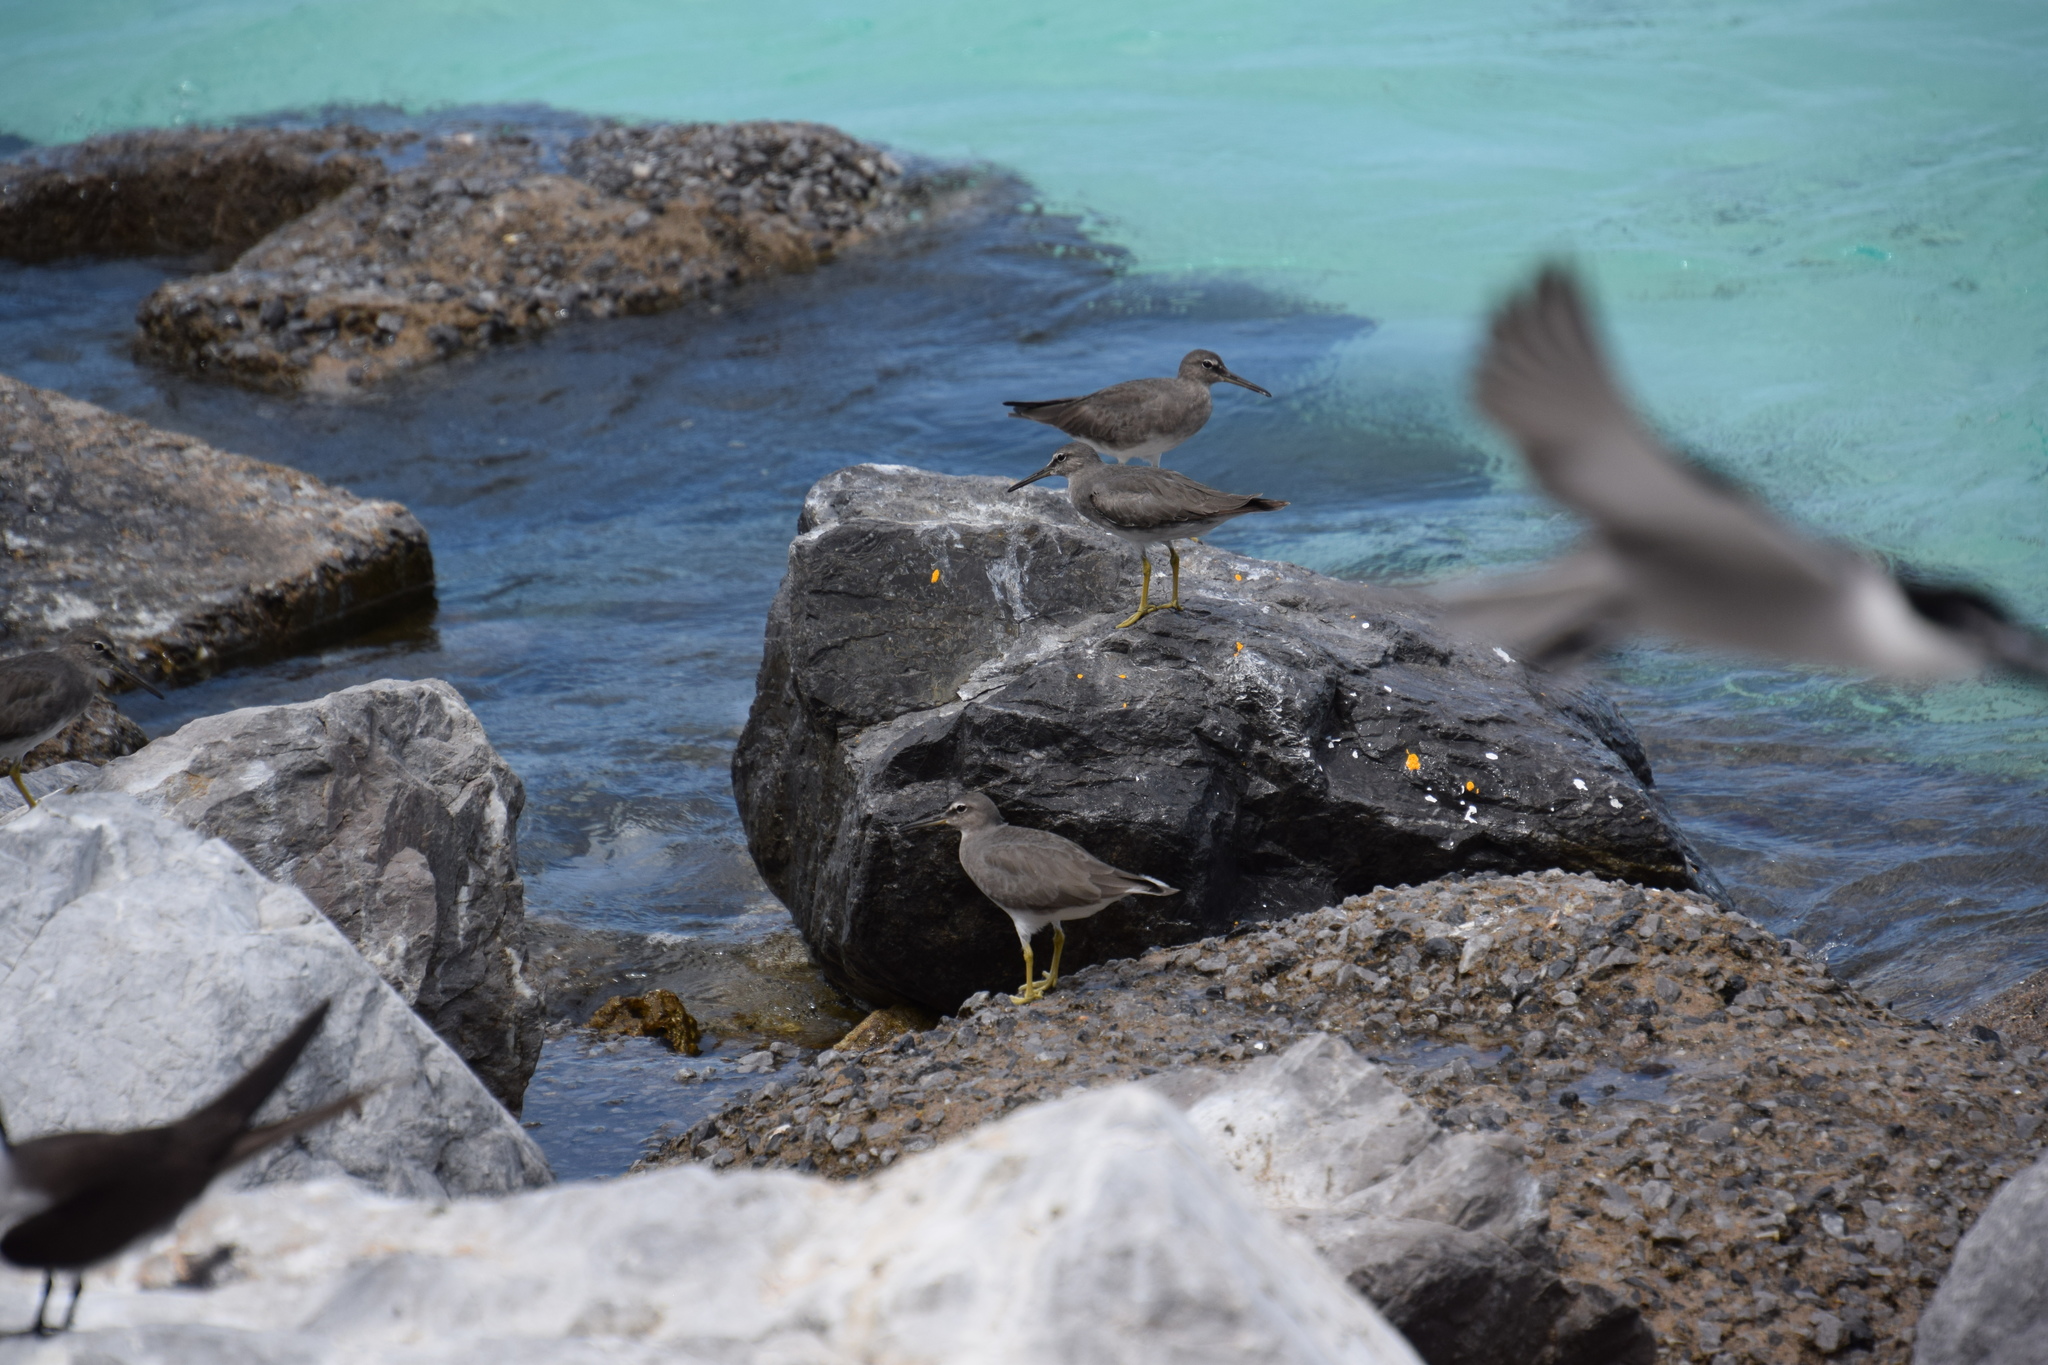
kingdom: Animalia
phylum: Chordata
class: Aves
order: Charadriiformes
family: Scolopacidae
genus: Tringa
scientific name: Tringa incana
